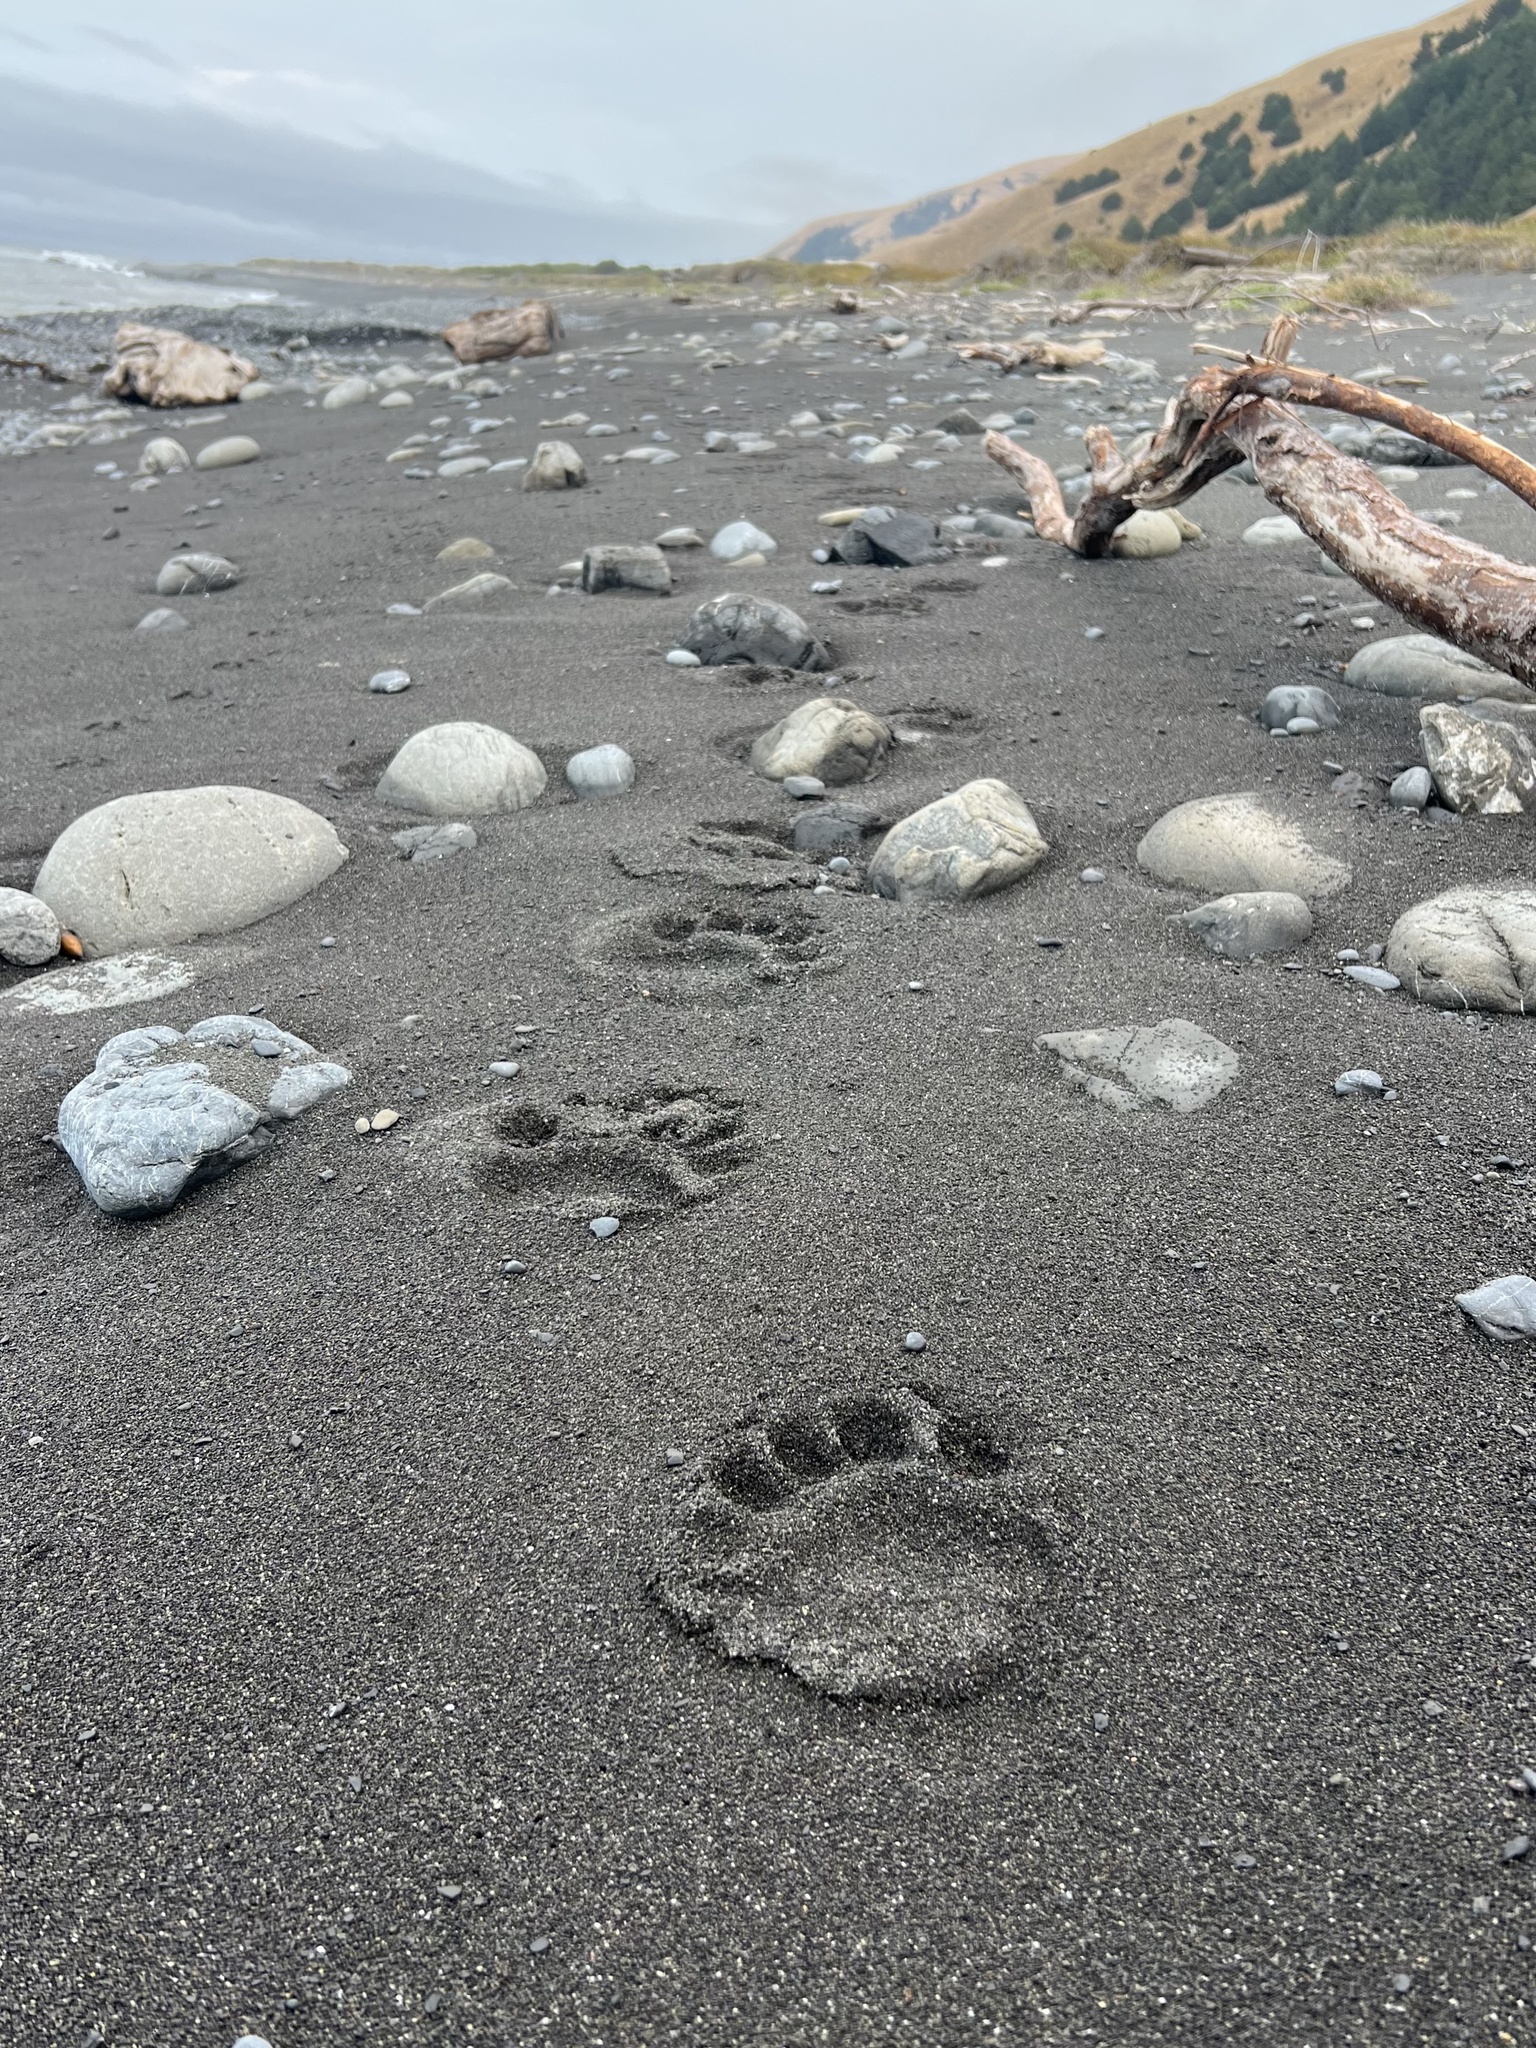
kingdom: Animalia
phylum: Chordata
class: Mammalia
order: Carnivora
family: Ursidae
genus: Ursus
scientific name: Ursus americanus
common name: American black bear
